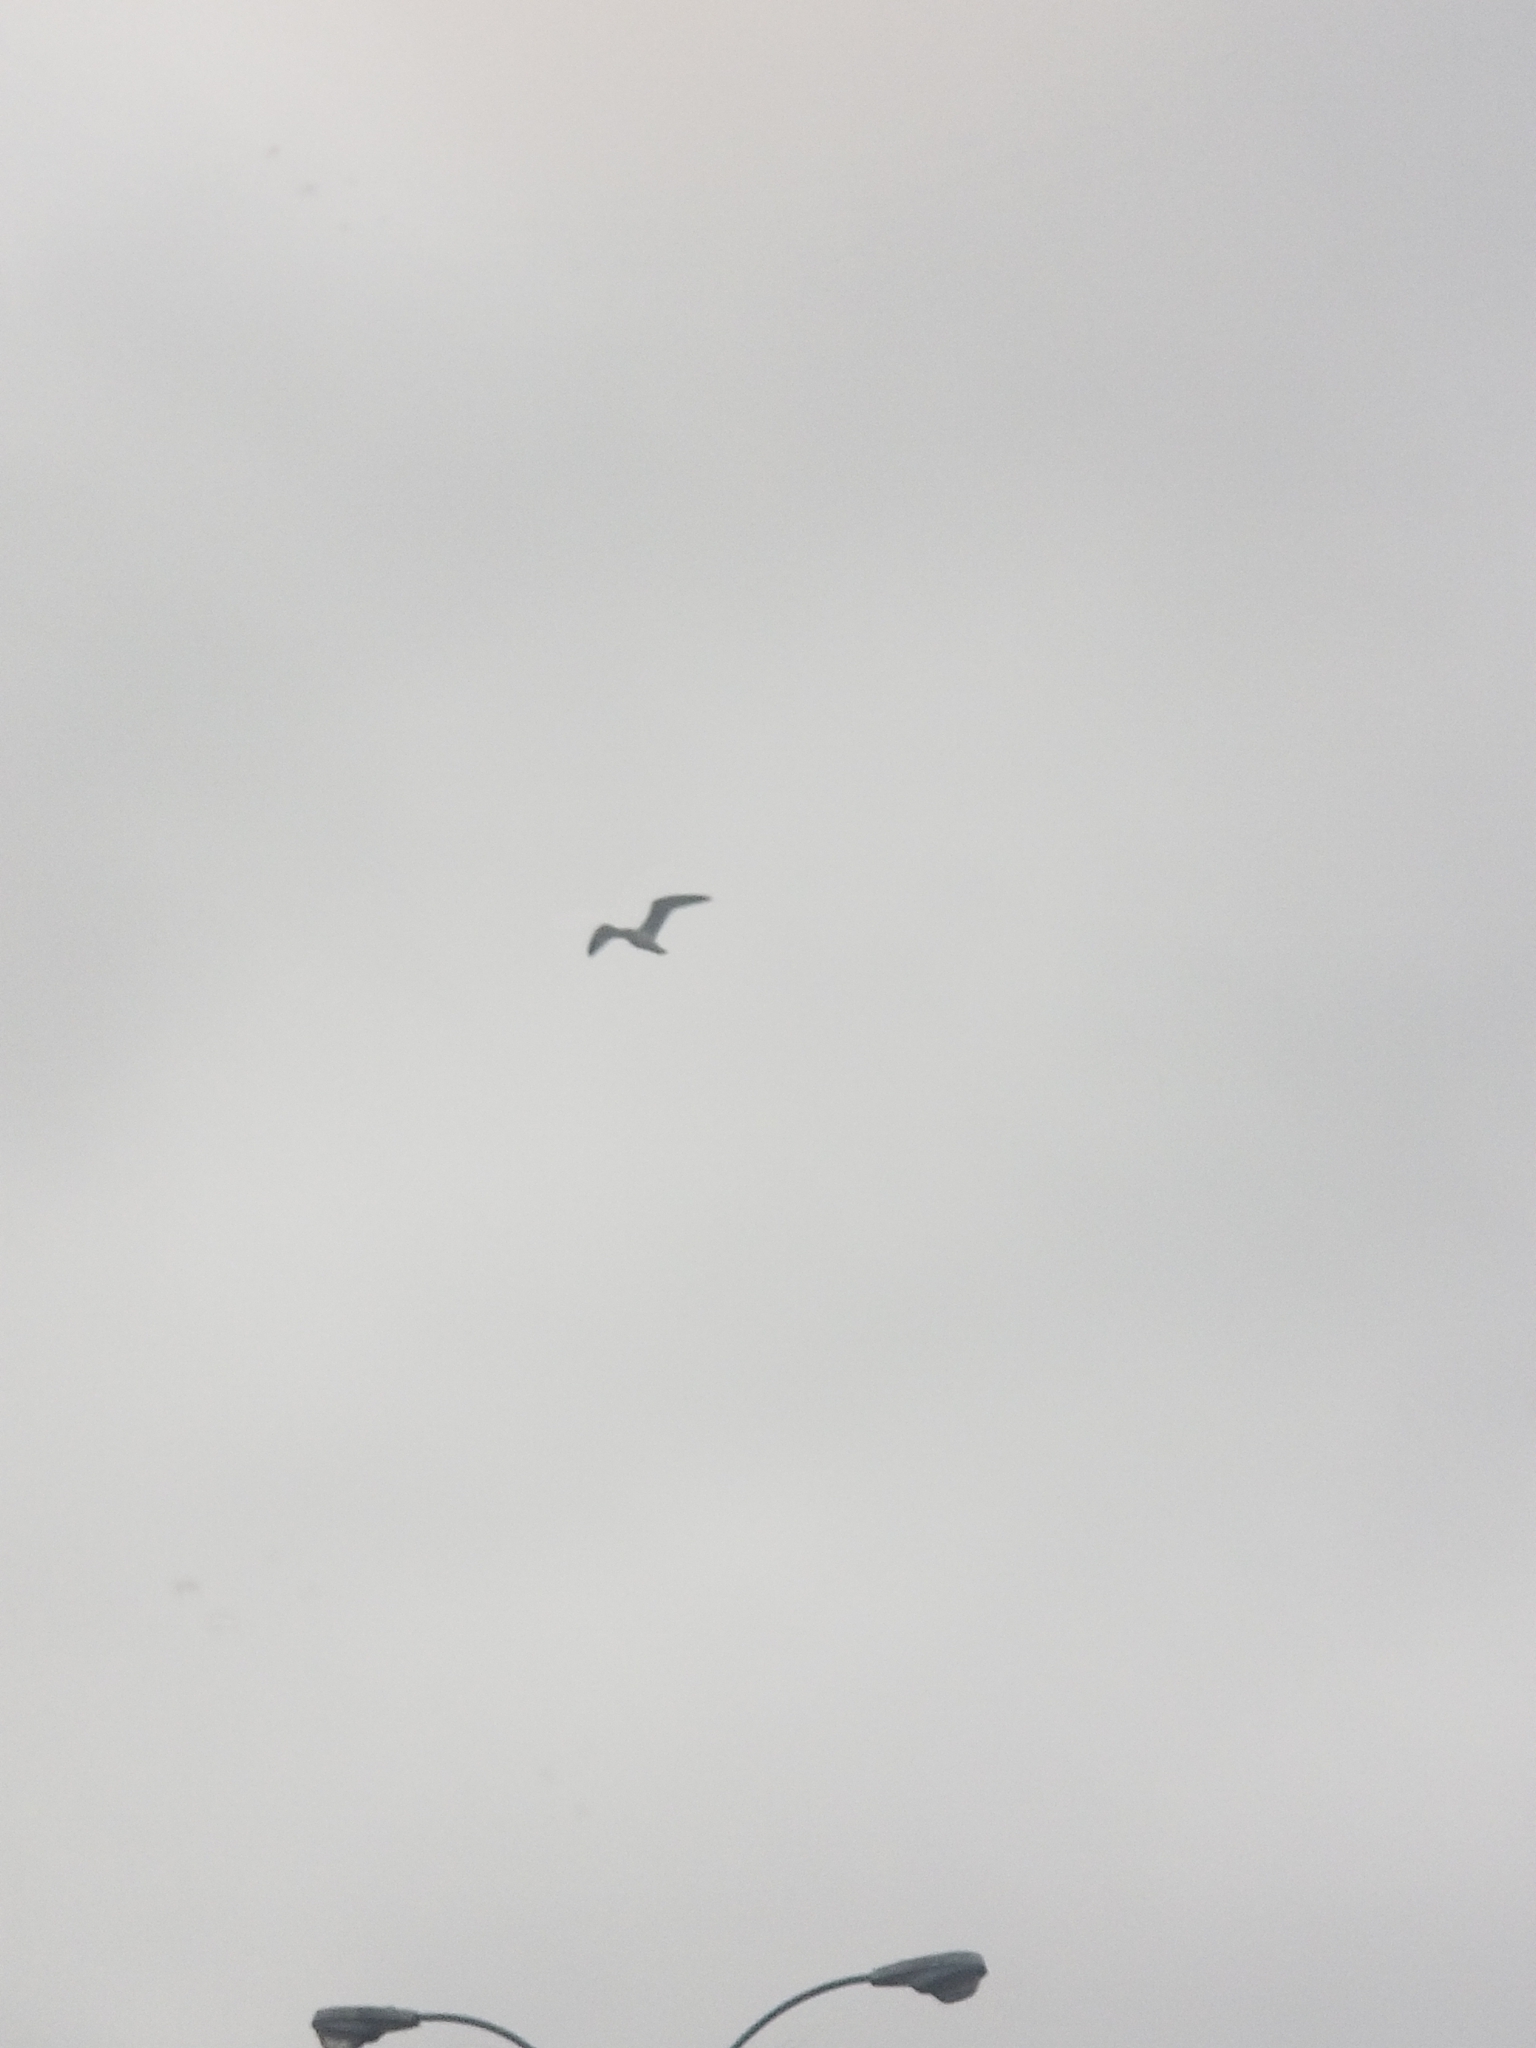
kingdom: Animalia
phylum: Chordata
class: Aves
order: Charadriiformes
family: Laridae
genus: Larus
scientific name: Larus delawarensis
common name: Ring-billed gull
